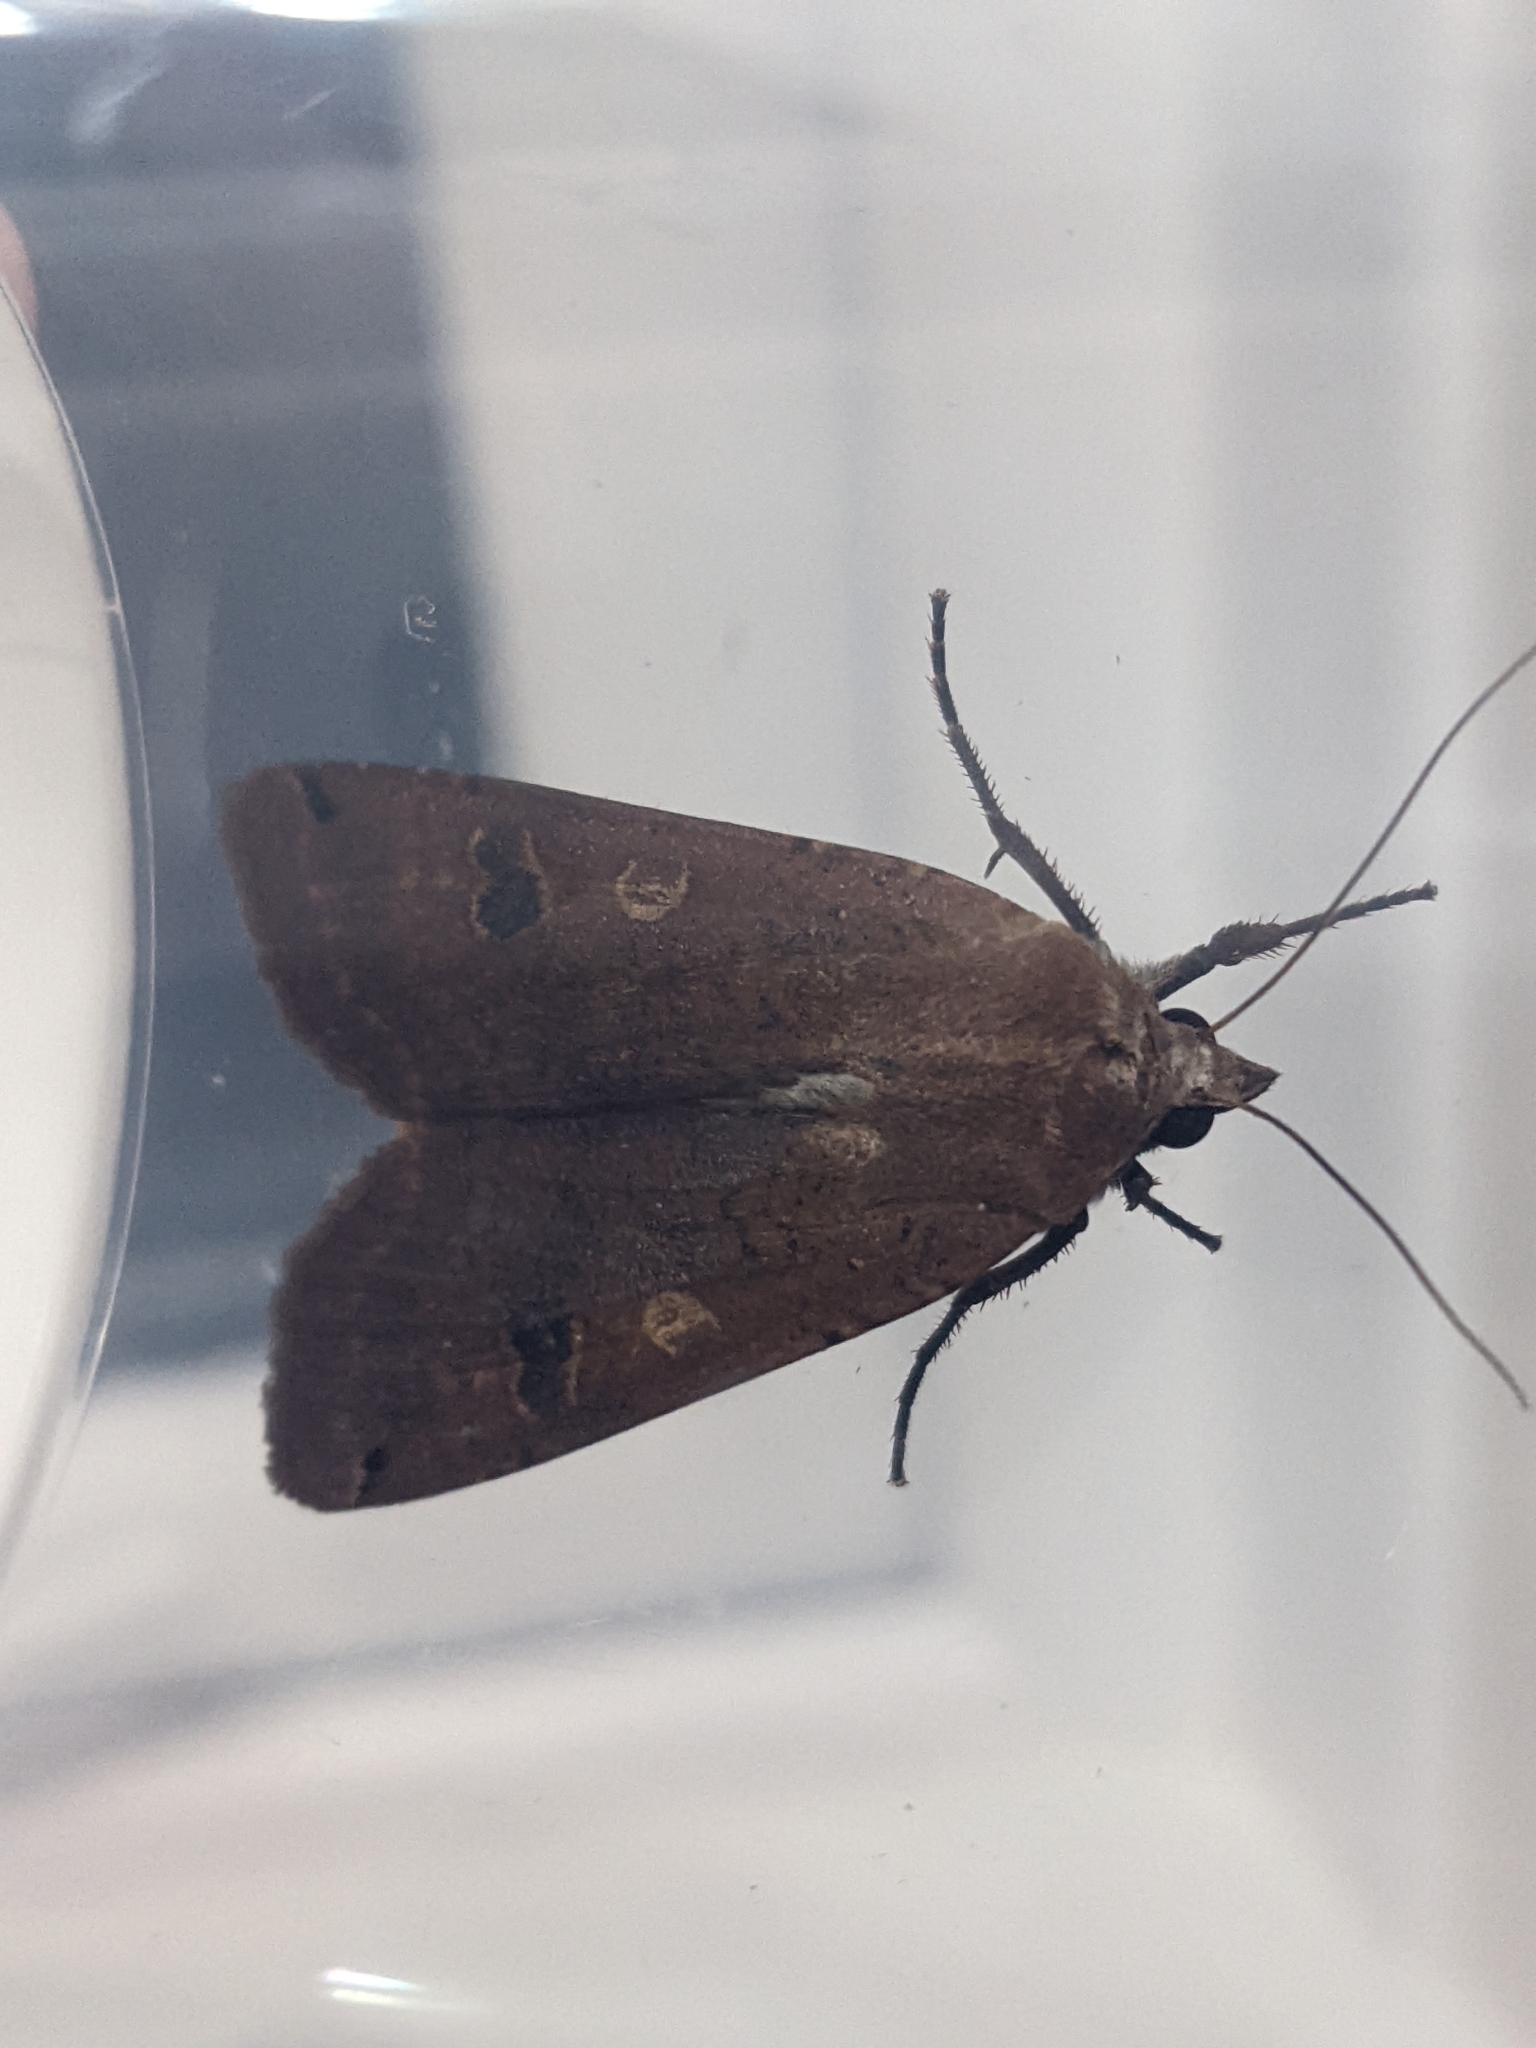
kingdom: Animalia
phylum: Arthropoda
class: Insecta
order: Lepidoptera
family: Noctuidae
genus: Noctua
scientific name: Noctua pronuba
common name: Large yellow underwing
